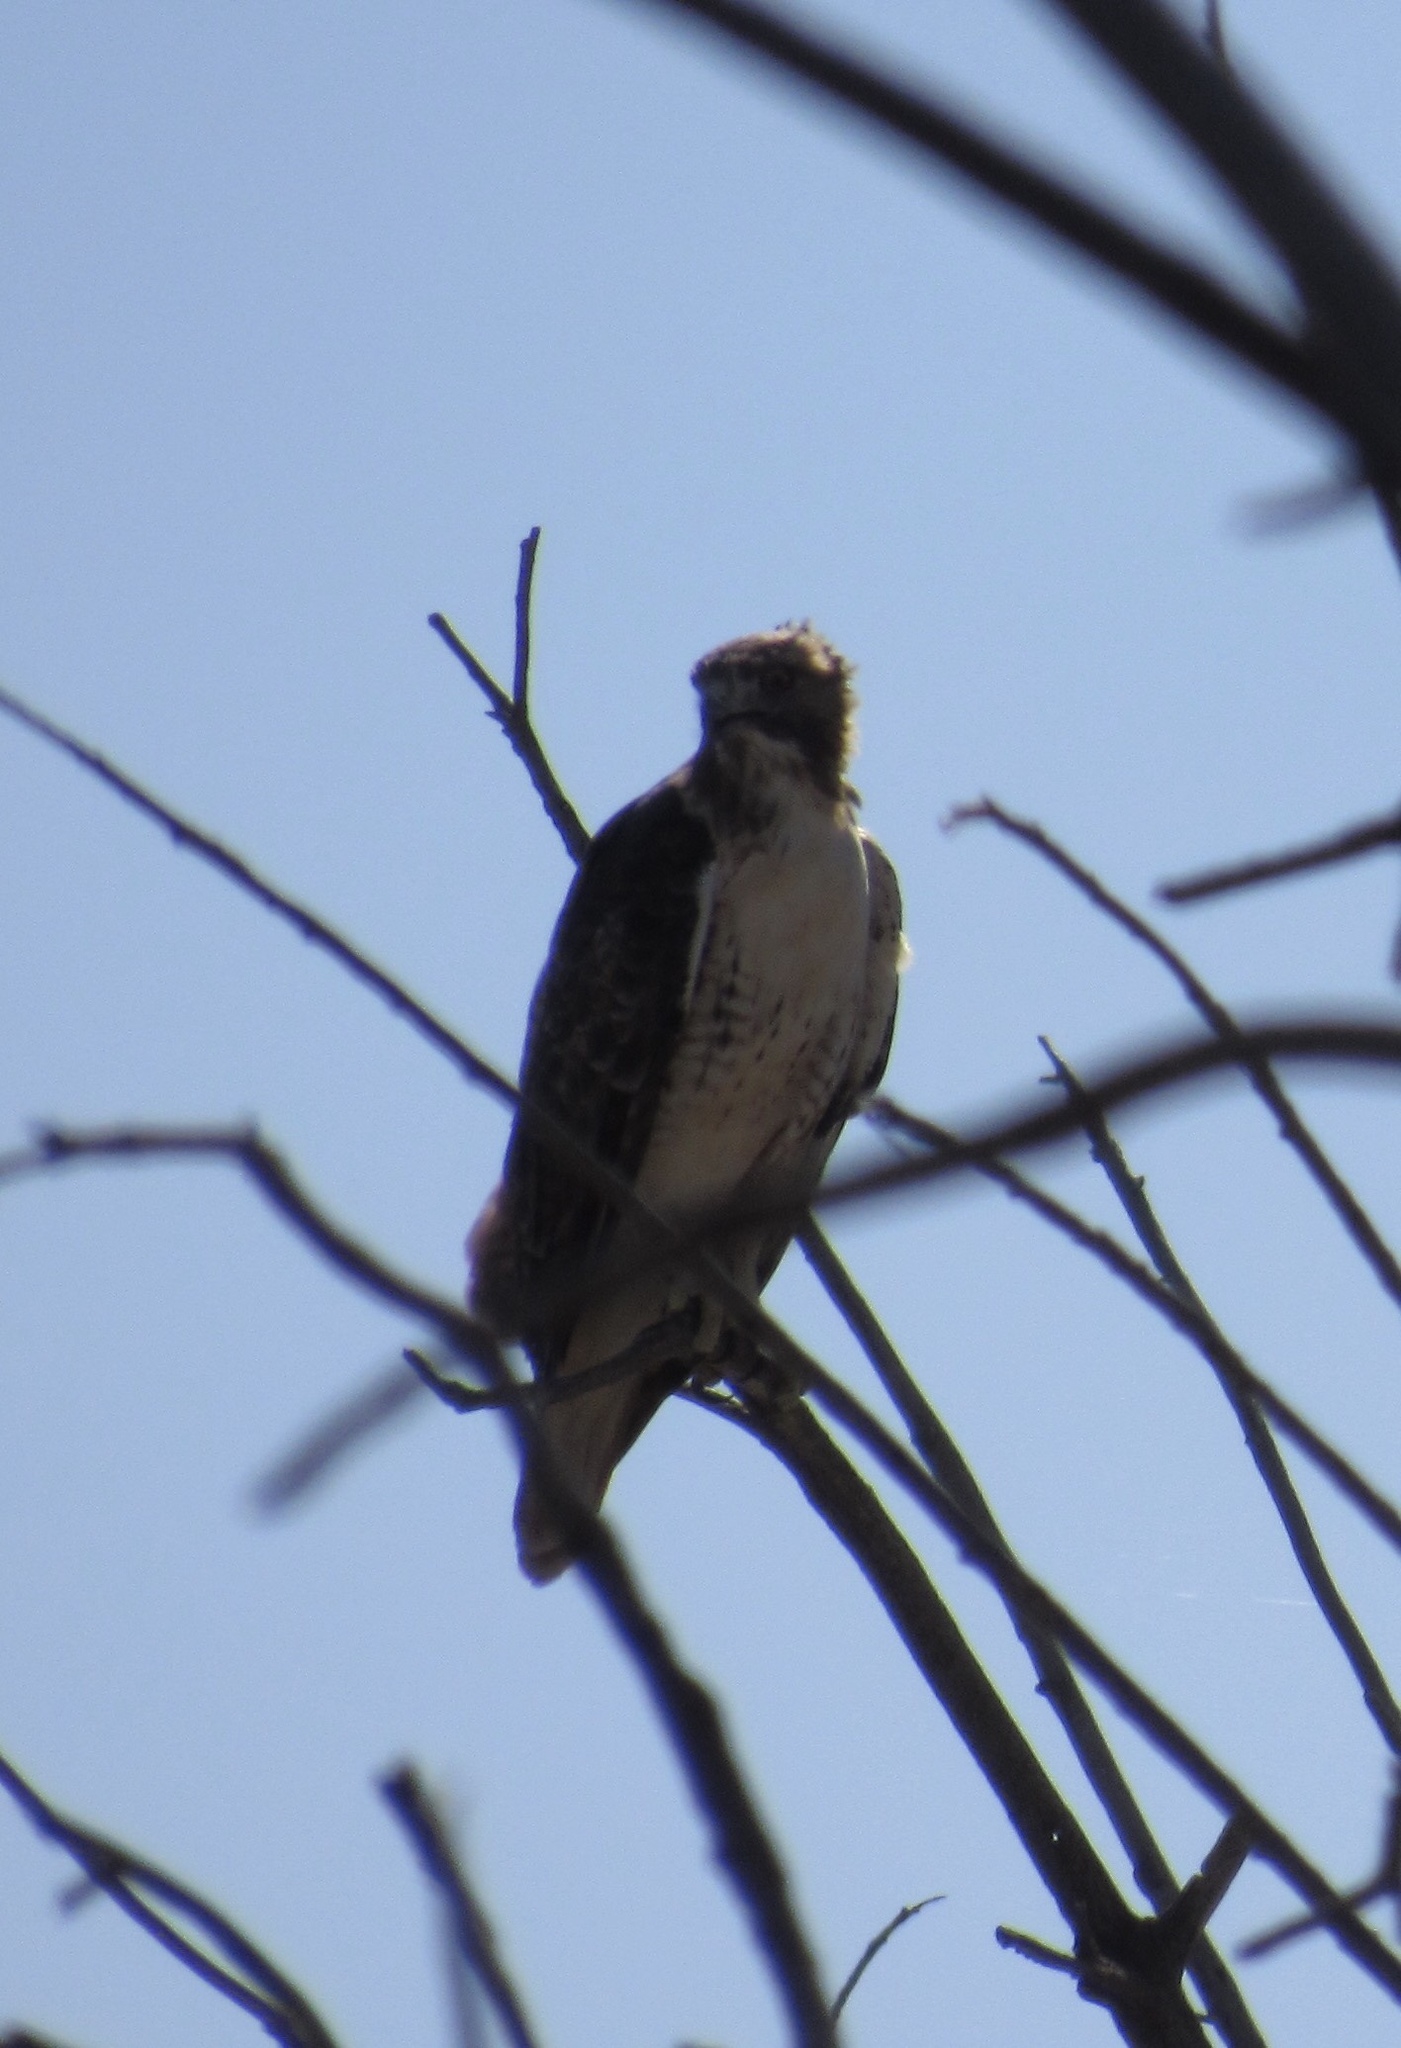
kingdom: Animalia
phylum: Chordata
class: Aves
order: Accipitriformes
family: Accipitridae
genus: Buteo
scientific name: Buteo jamaicensis
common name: Red-tailed hawk
